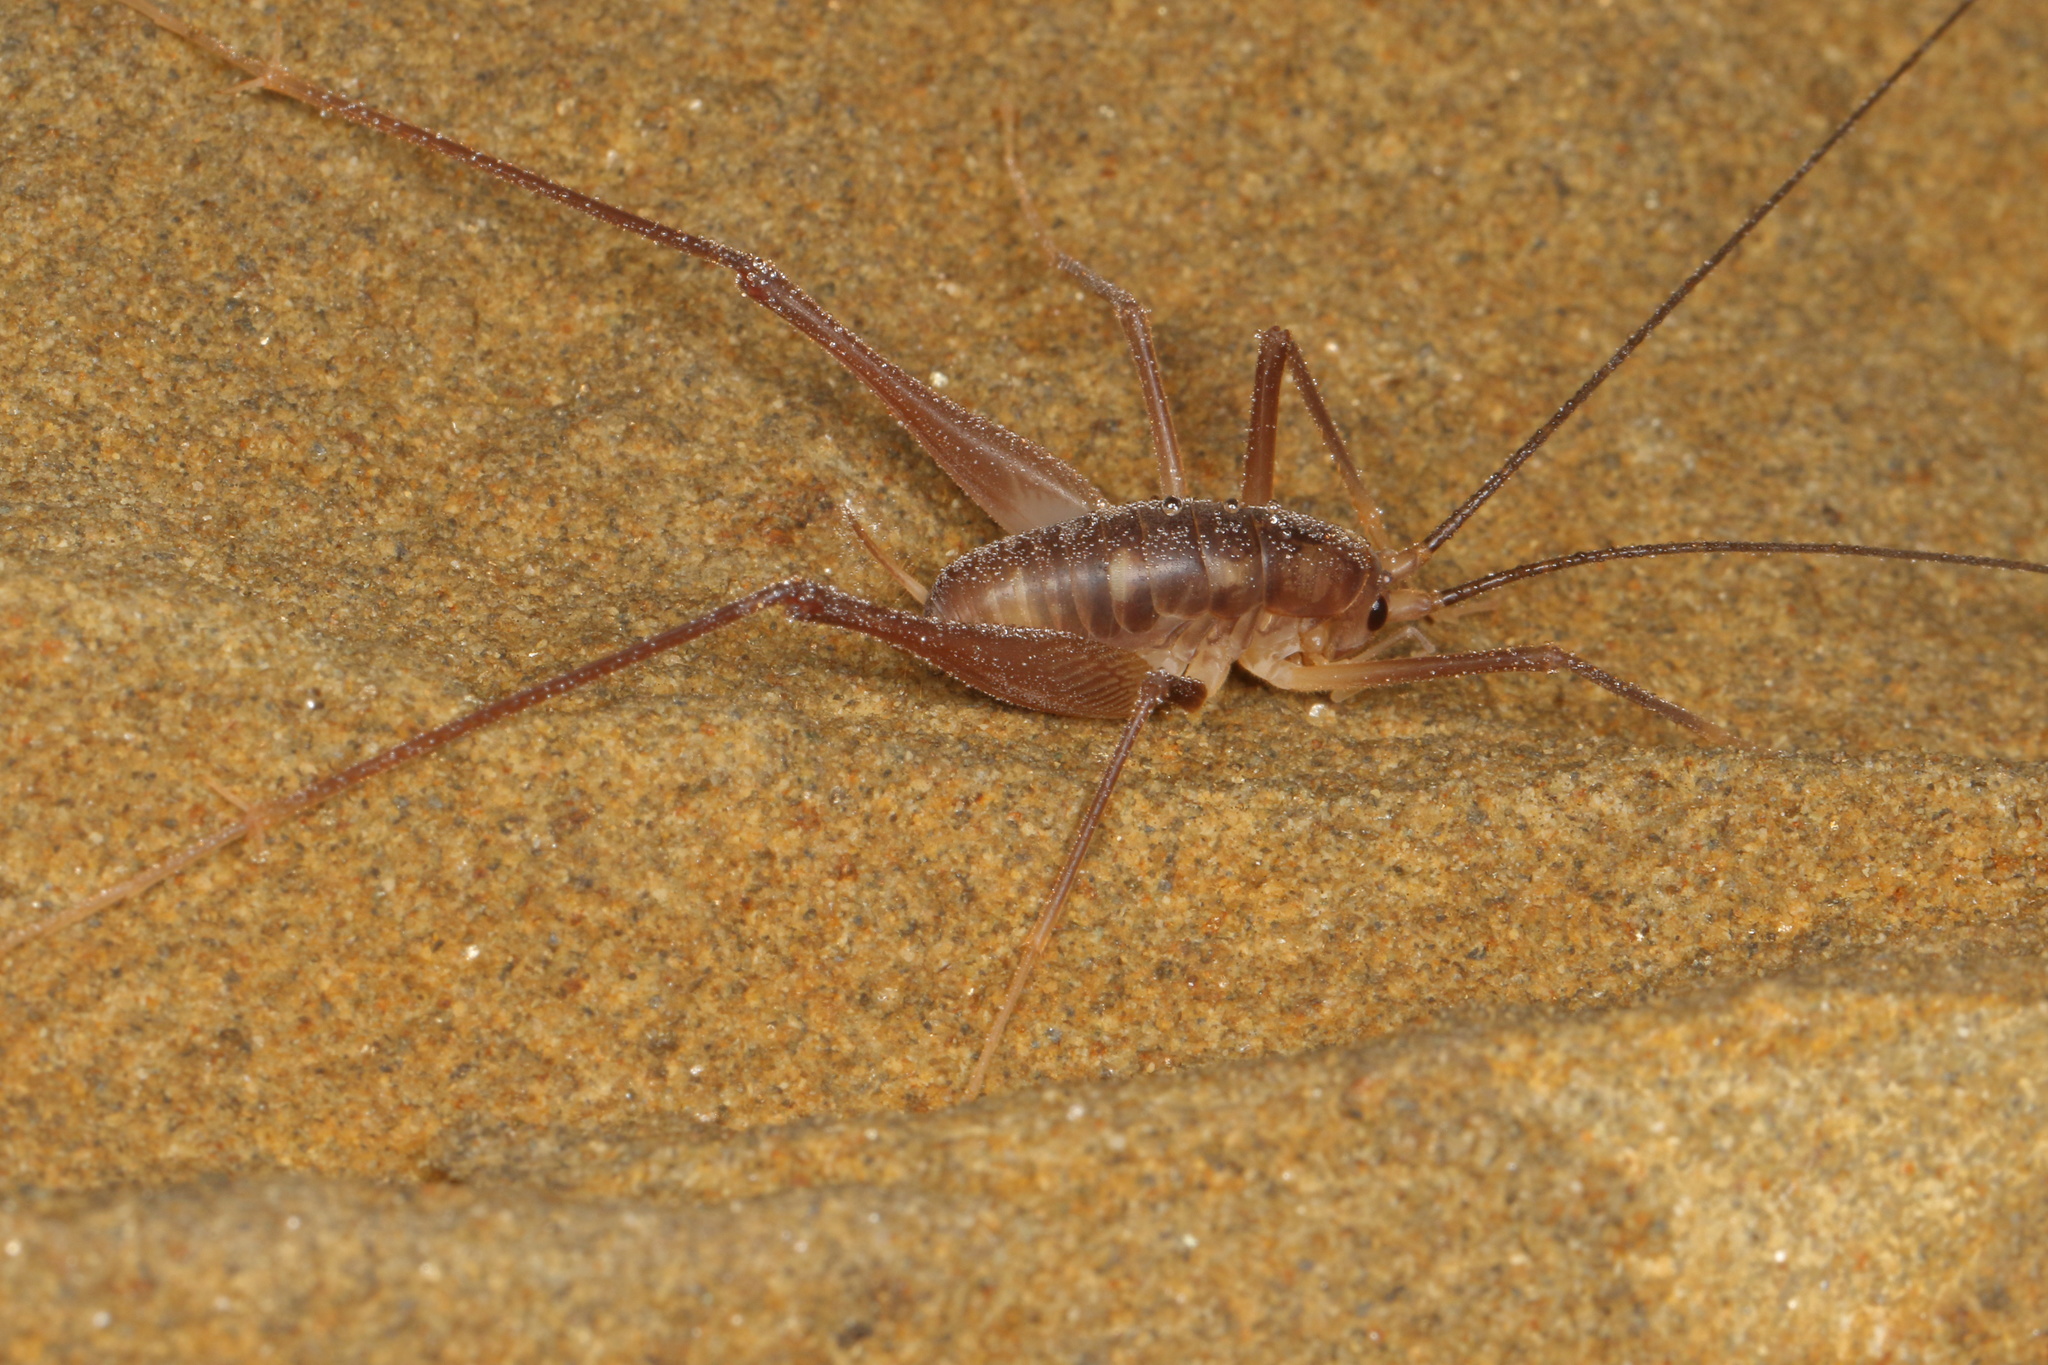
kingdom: Animalia
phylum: Arthropoda
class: Insecta
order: Orthoptera
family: Rhaphidophoridae
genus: Macropathus
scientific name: Macropathus filifer
